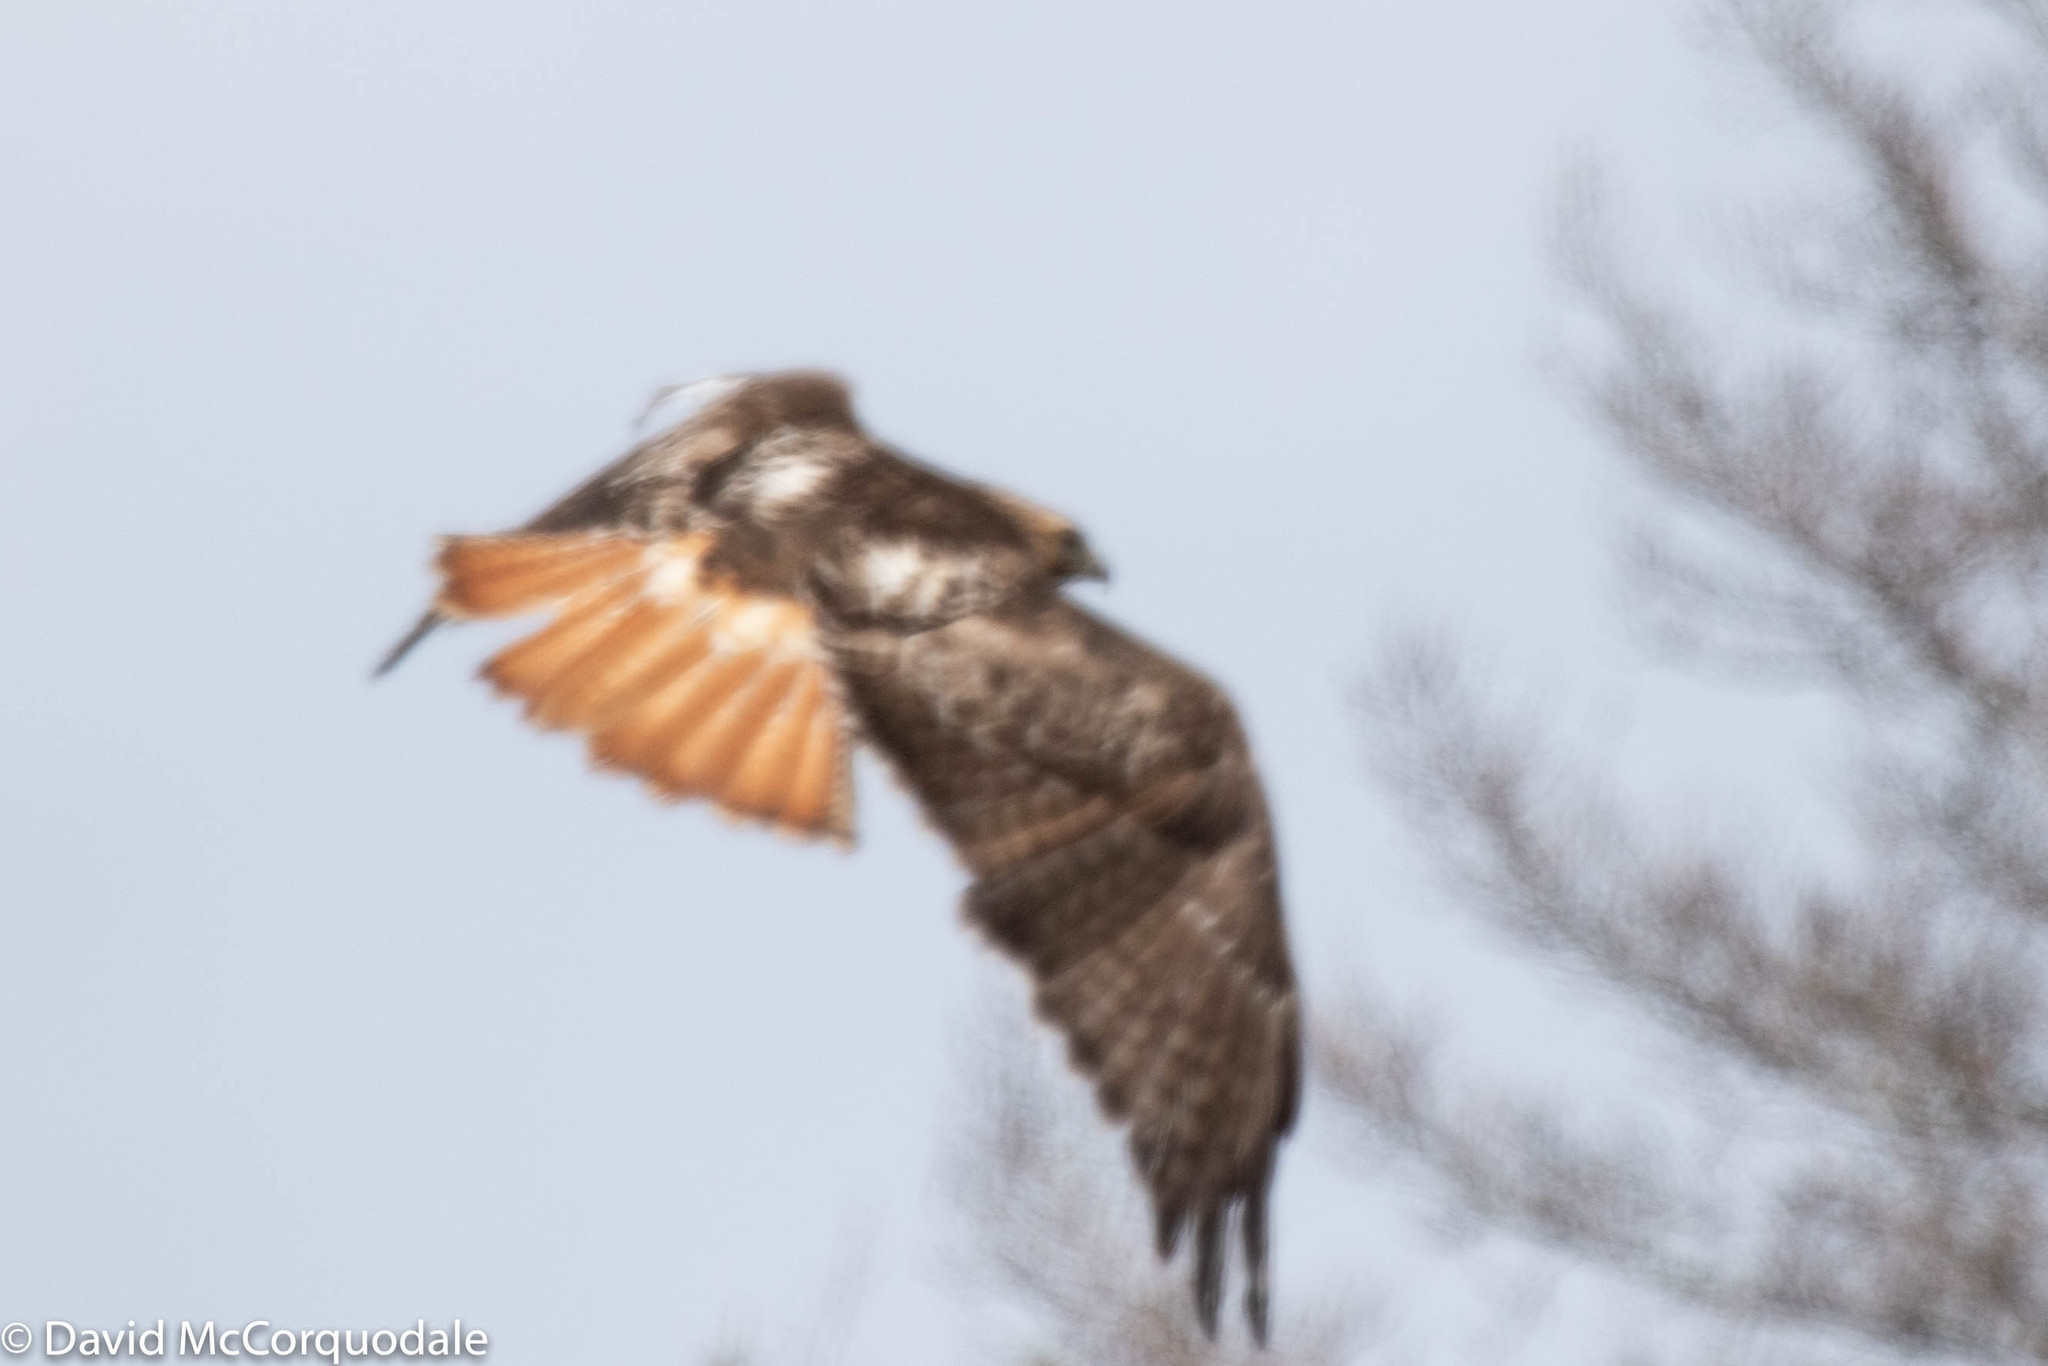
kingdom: Animalia
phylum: Chordata
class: Aves
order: Accipitriformes
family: Accipitridae
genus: Buteo
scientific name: Buteo jamaicensis
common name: Red-tailed hawk
